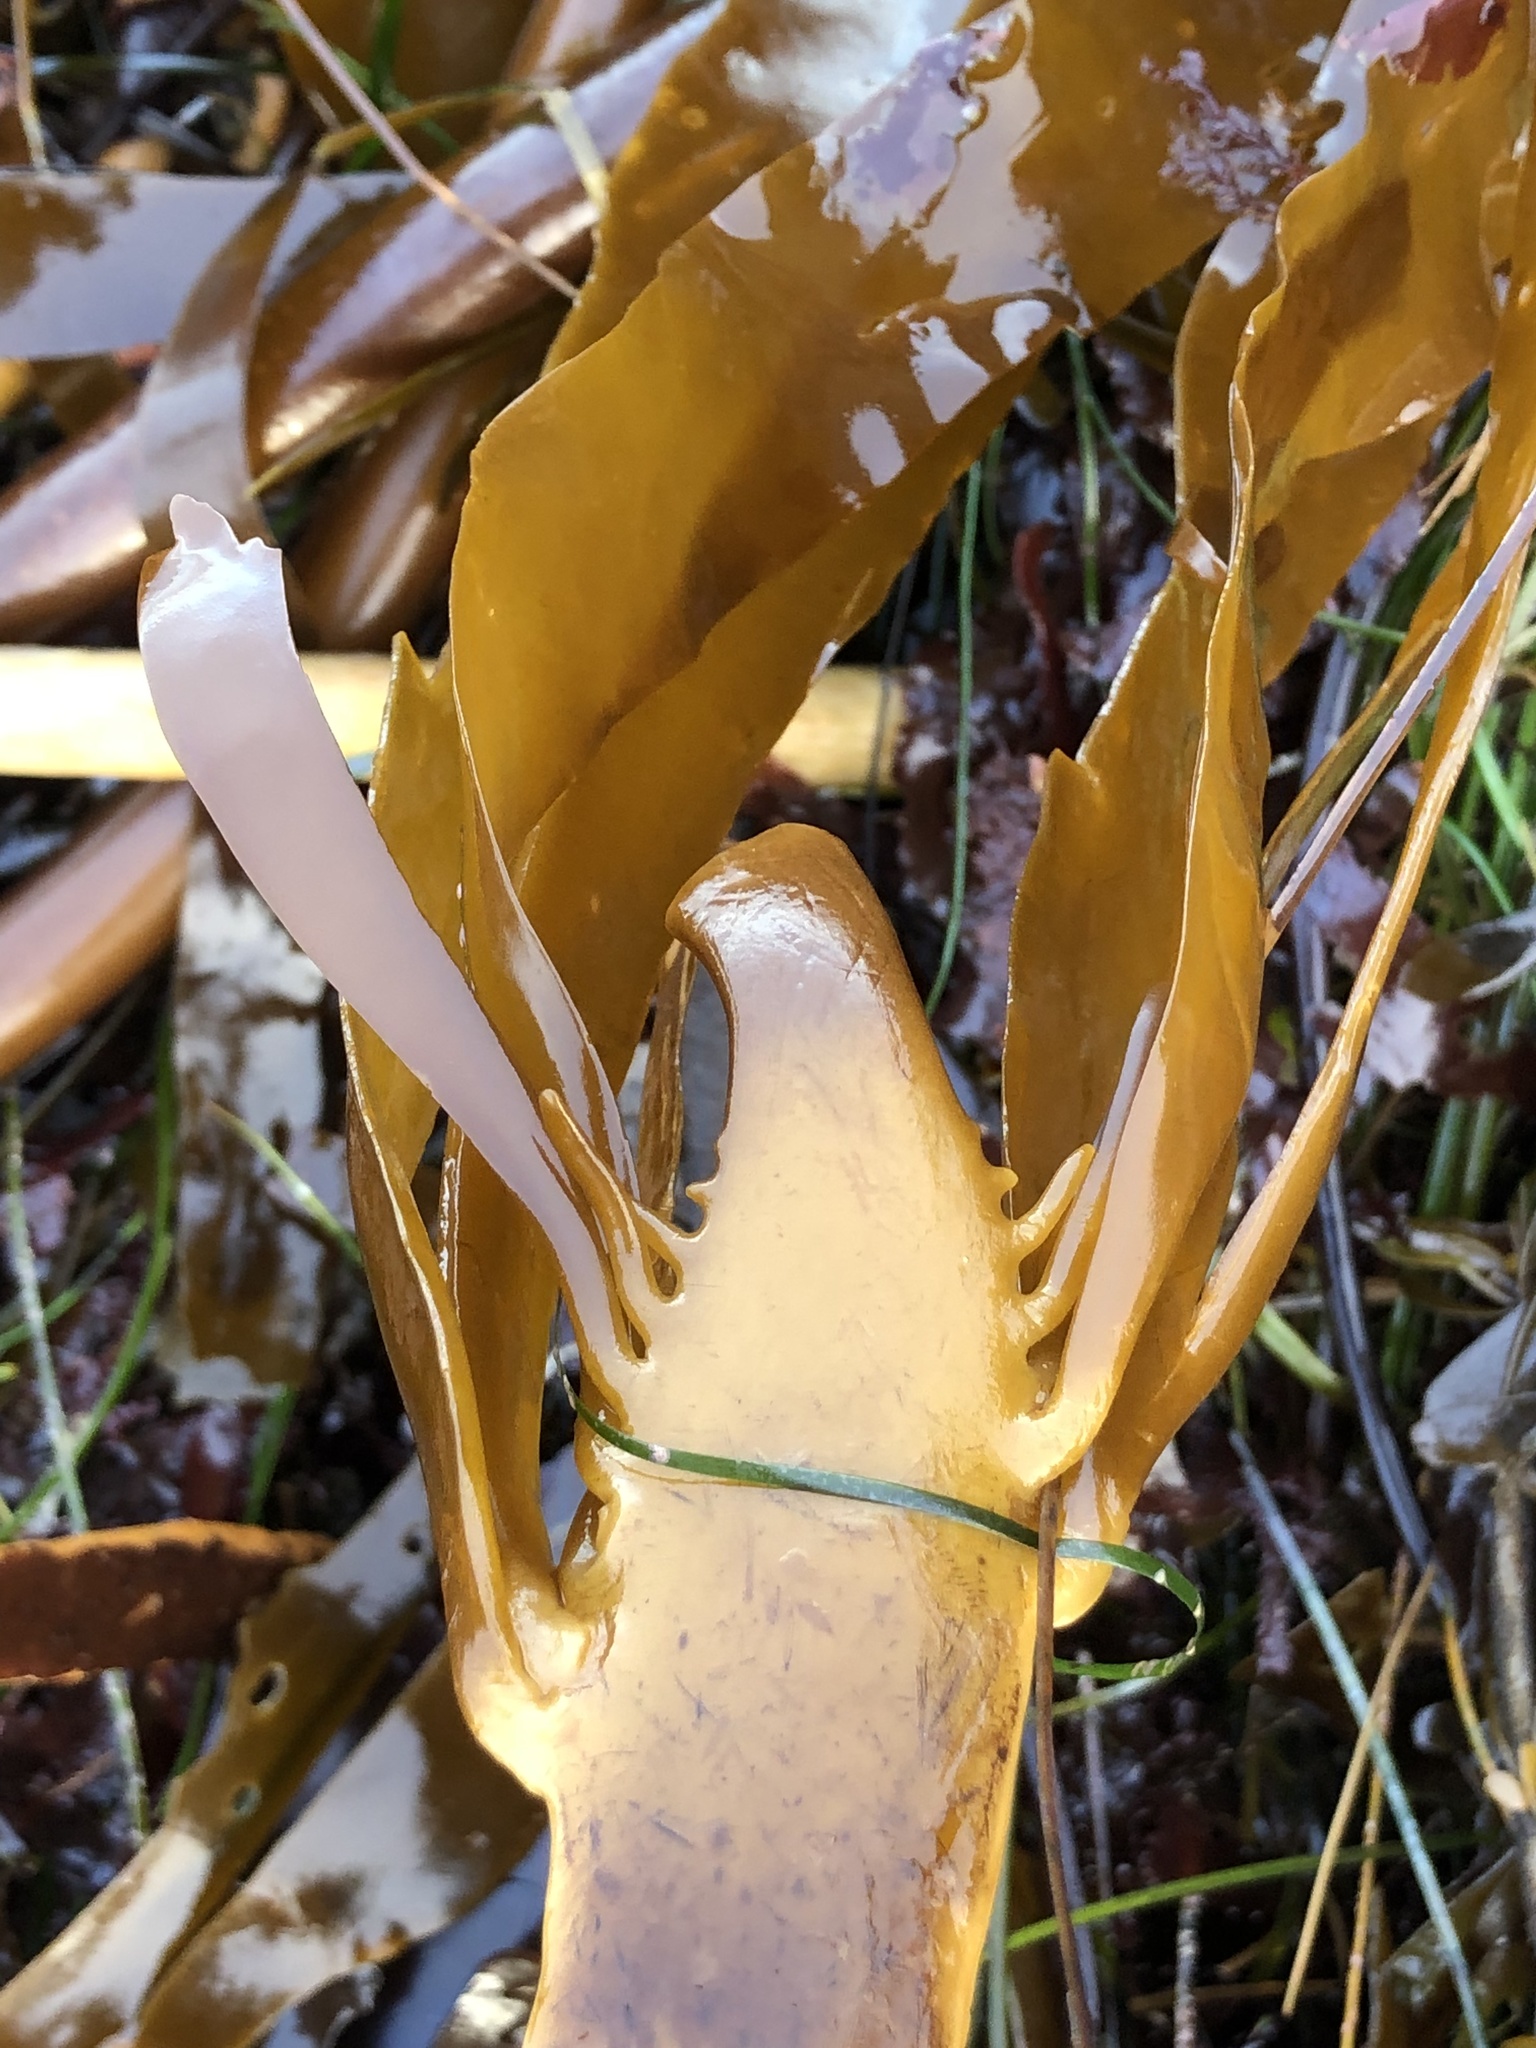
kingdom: Chromista
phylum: Ochrophyta
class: Phaeophyceae
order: Laminariales
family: Alariaceae
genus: Pterygophora
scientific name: Pterygophora californica
